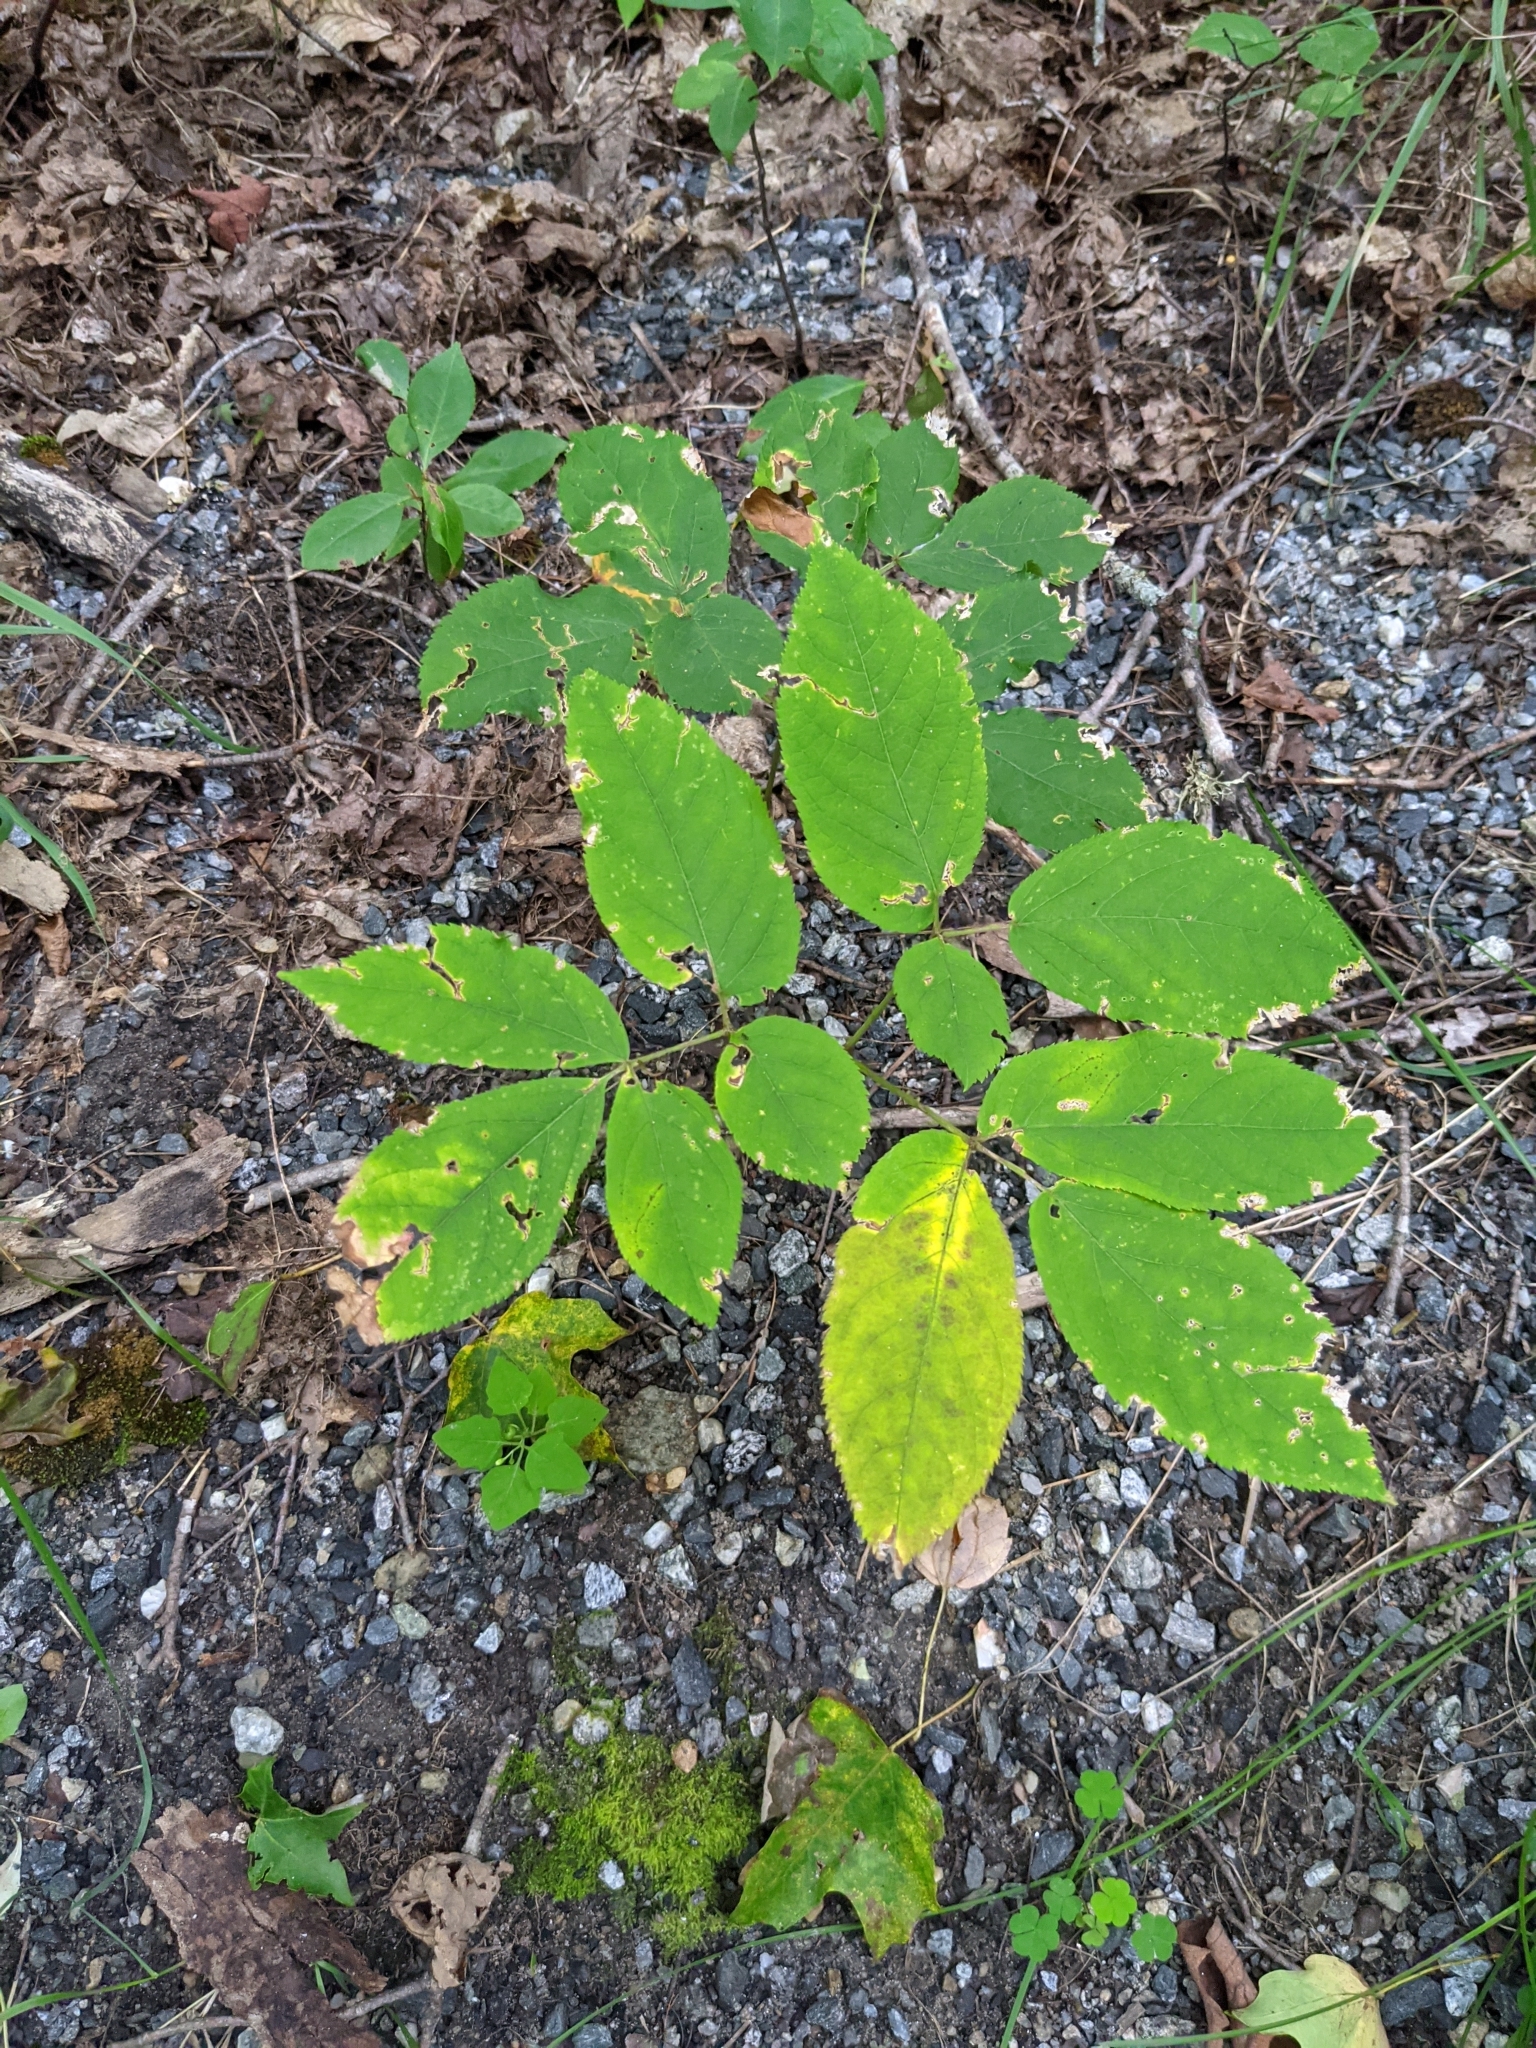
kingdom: Plantae
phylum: Tracheophyta
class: Magnoliopsida
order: Apiales
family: Araliaceae
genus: Aralia
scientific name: Aralia nudicaulis
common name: Wild sarsaparilla
